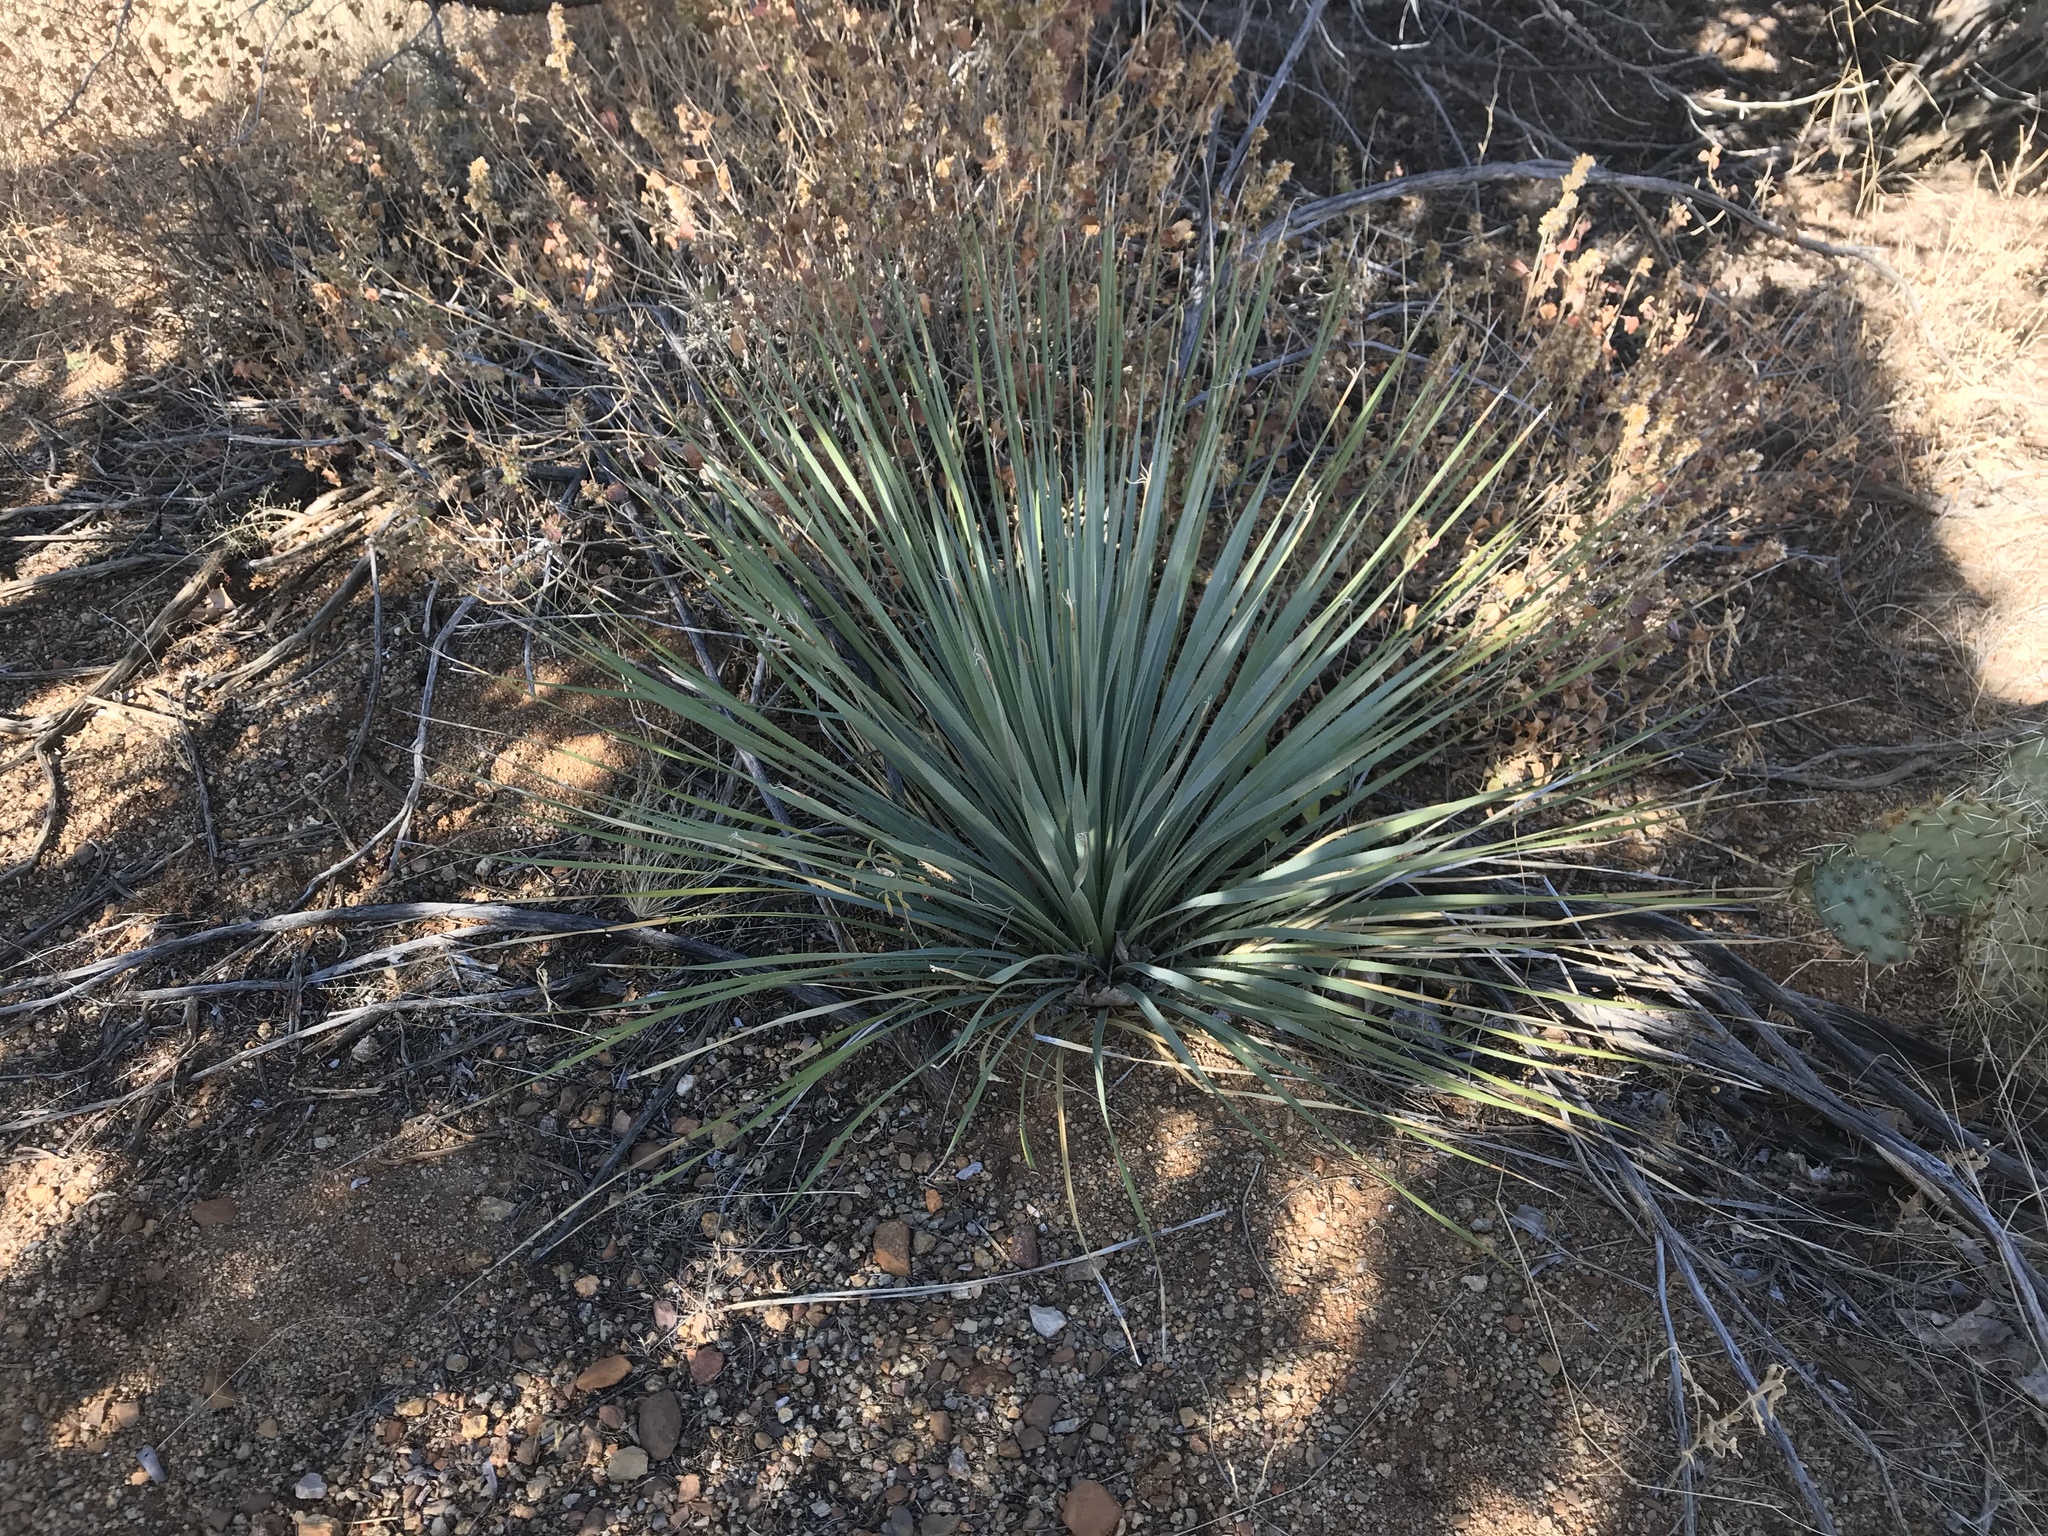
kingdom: Plantae
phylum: Tracheophyta
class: Liliopsida
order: Asparagales
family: Asparagaceae
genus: Dasylirion
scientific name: Dasylirion wheeleri
